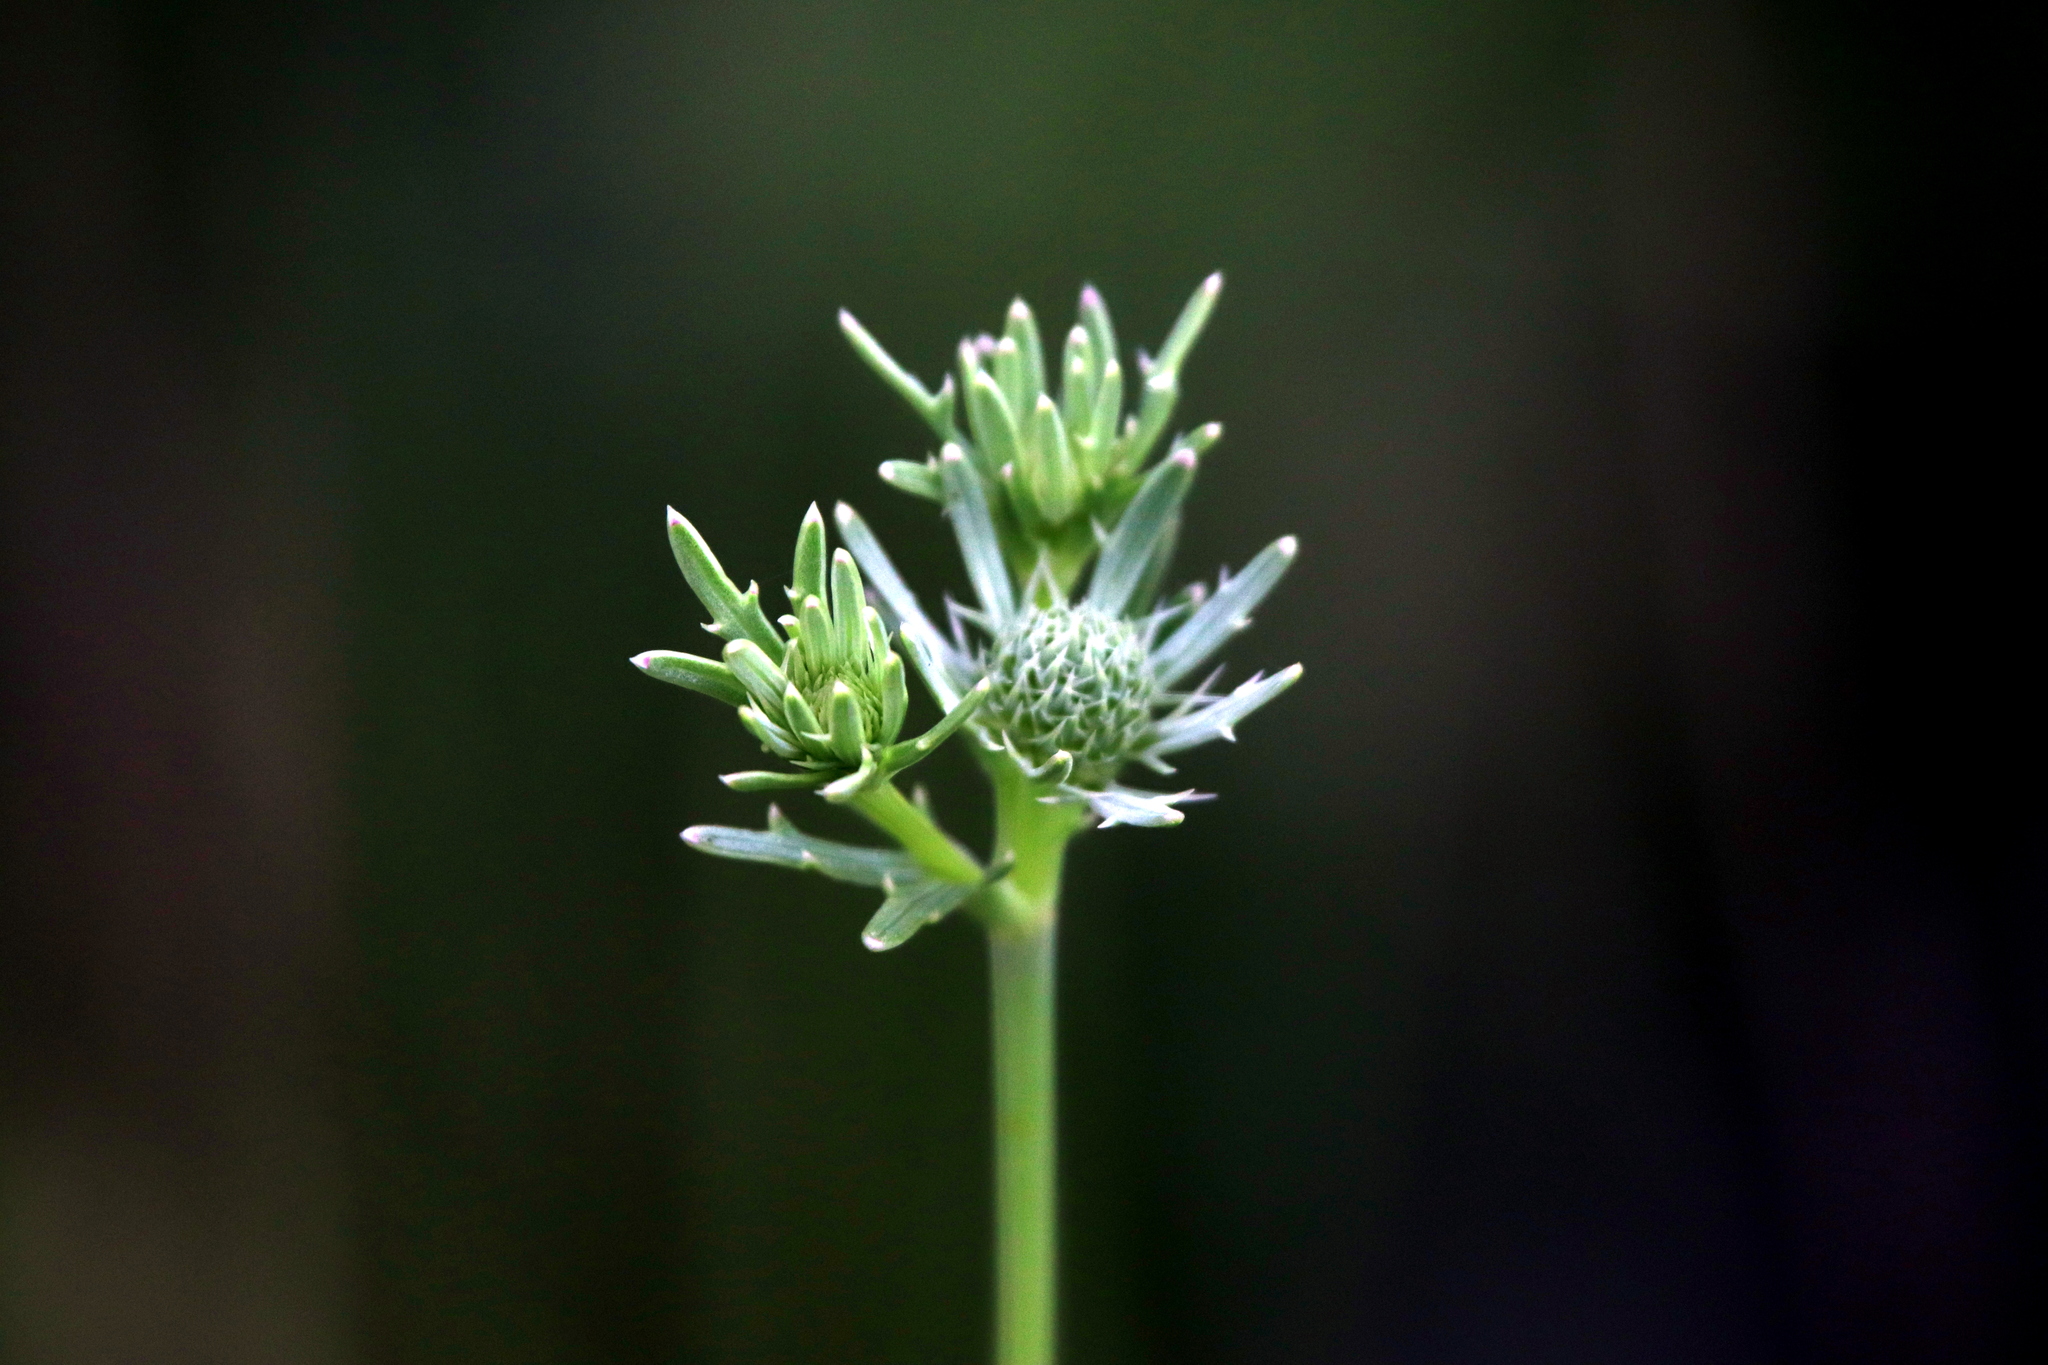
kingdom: Plantae
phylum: Tracheophyta
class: Magnoliopsida
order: Apiales
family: Apiaceae
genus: Eryngium
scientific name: Eryngium integrifolium
